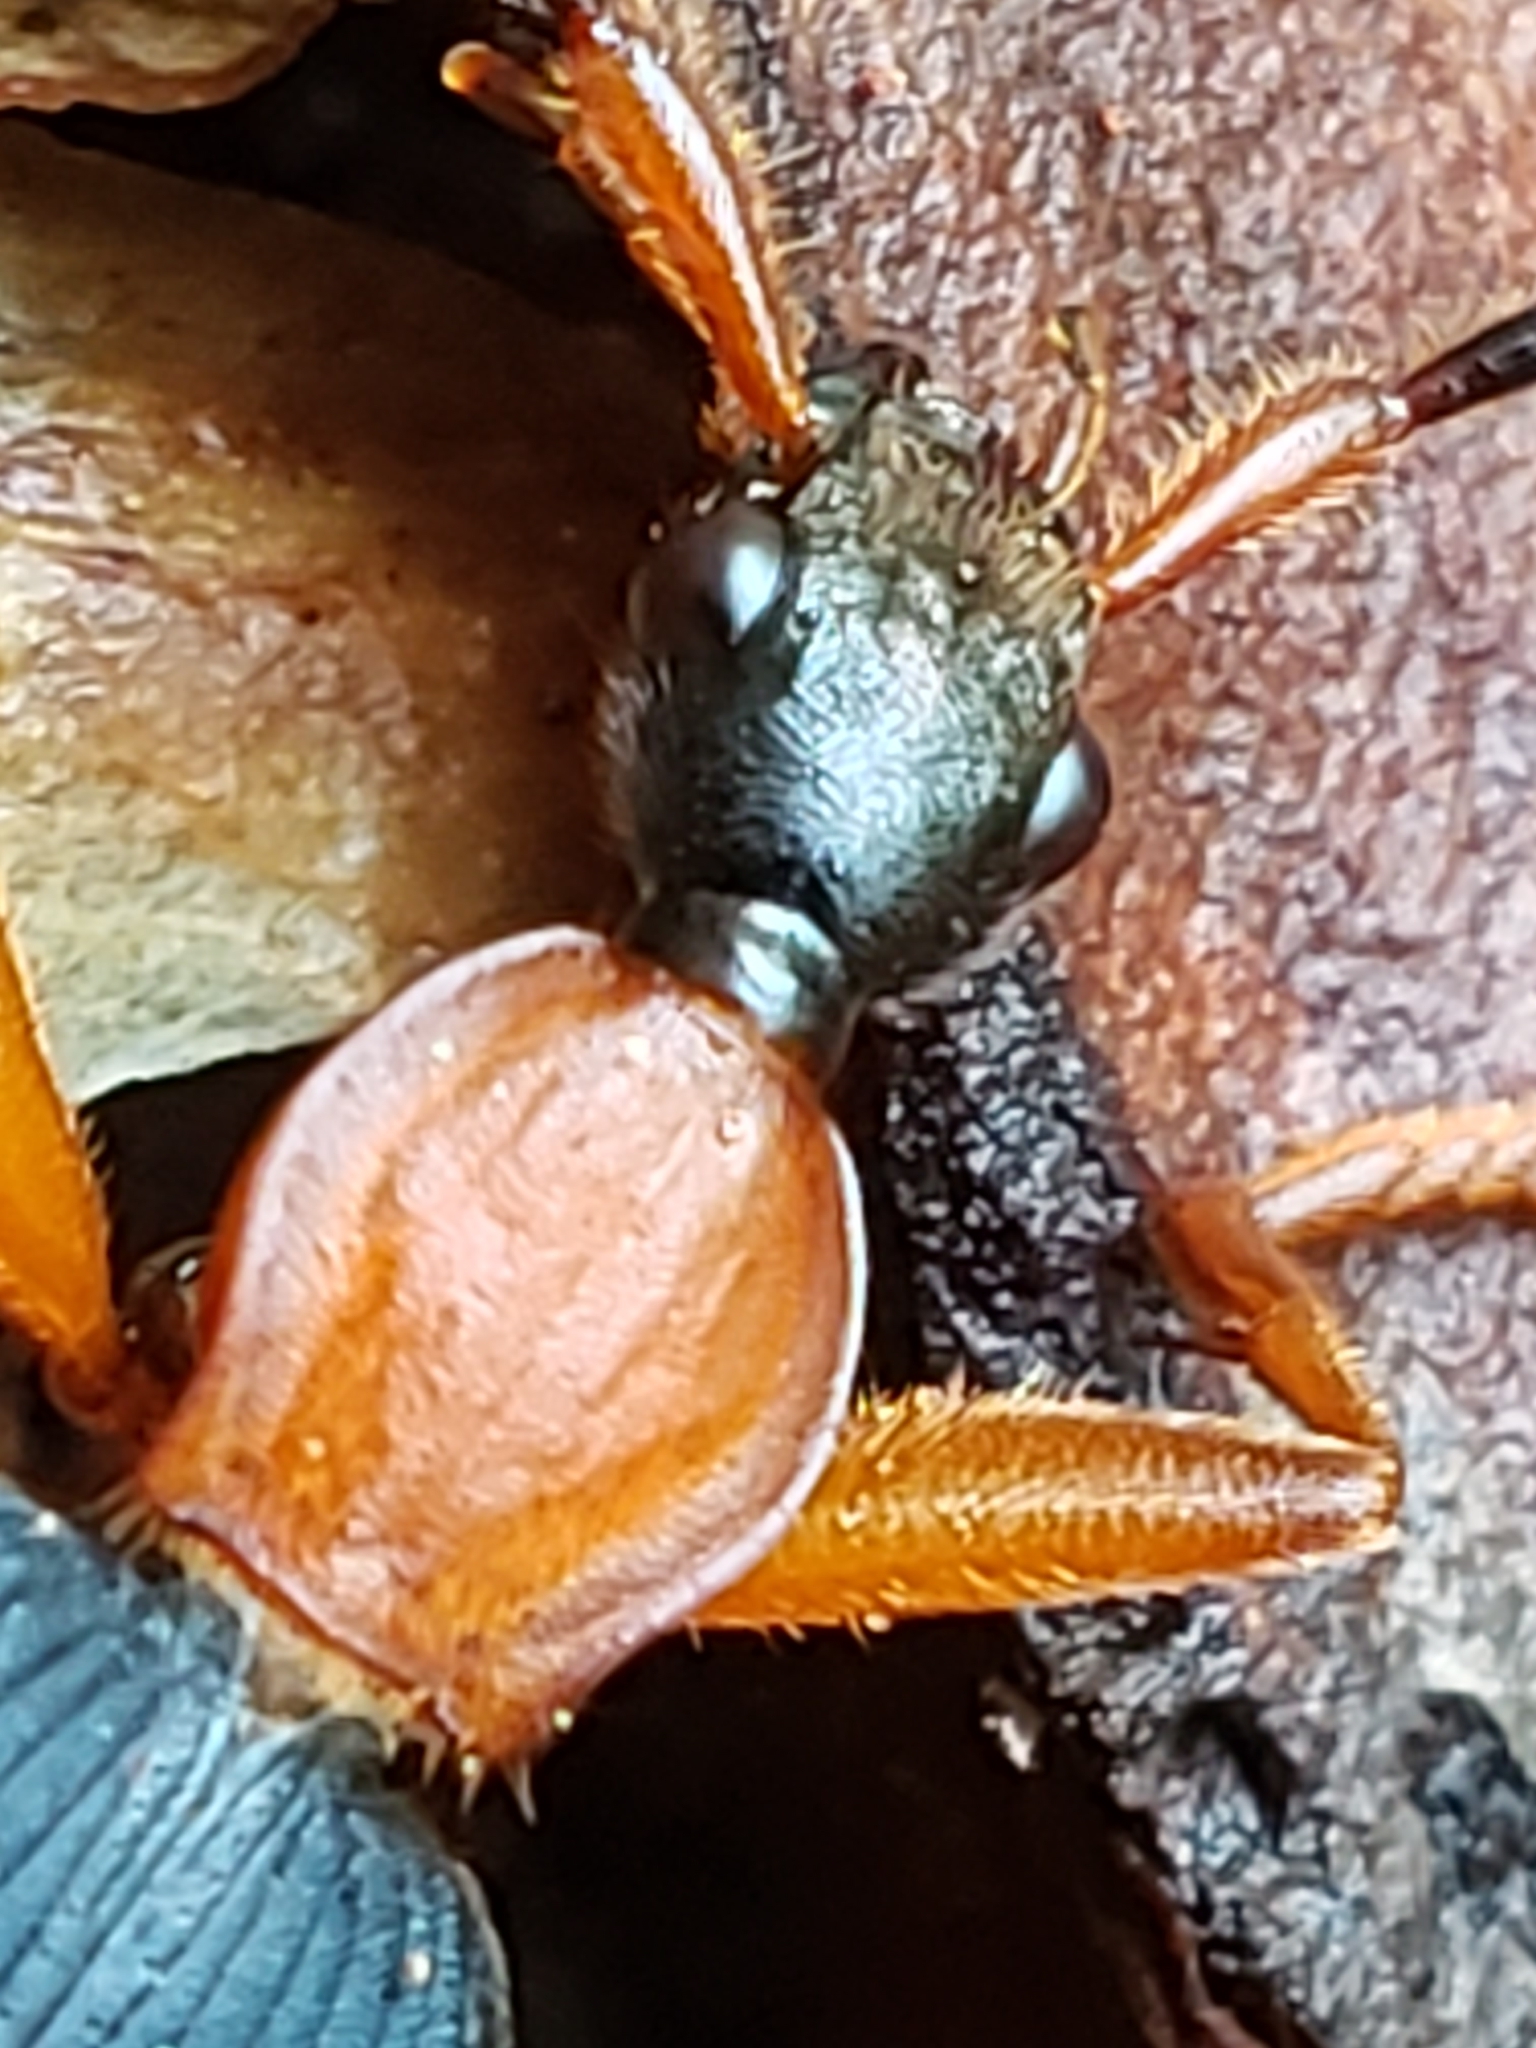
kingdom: Animalia
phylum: Arthropoda
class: Insecta
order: Coleoptera
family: Carabidae
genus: Galerita
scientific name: Galerita bicolor
